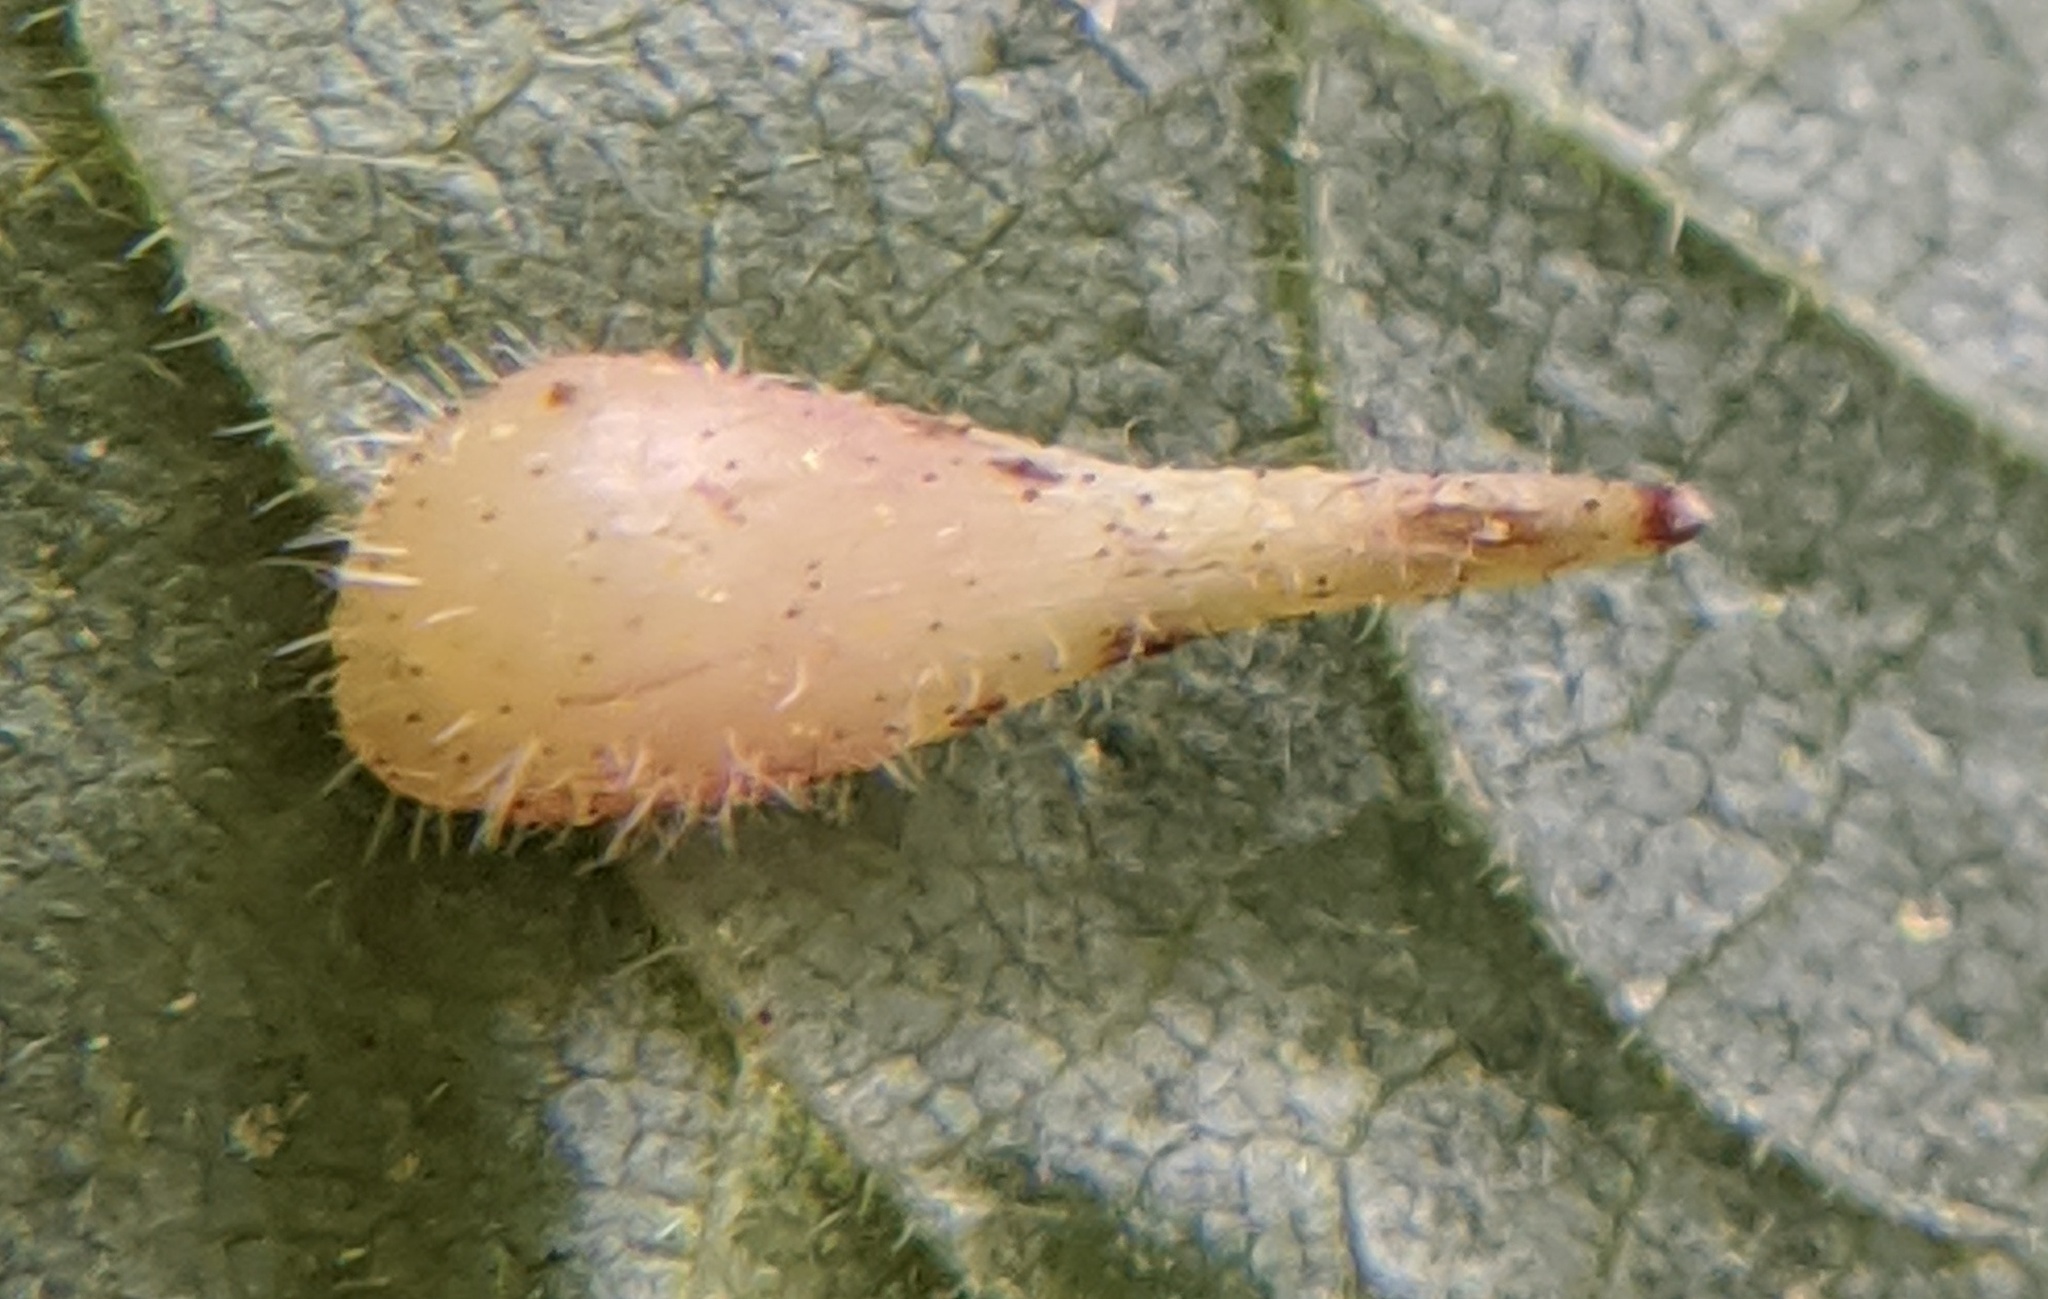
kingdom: Animalia
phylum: Arthropoda
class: Insecta
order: Diptera
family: Cecidomyiidae
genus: Caryomyia
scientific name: Caryomyia spinulosa
